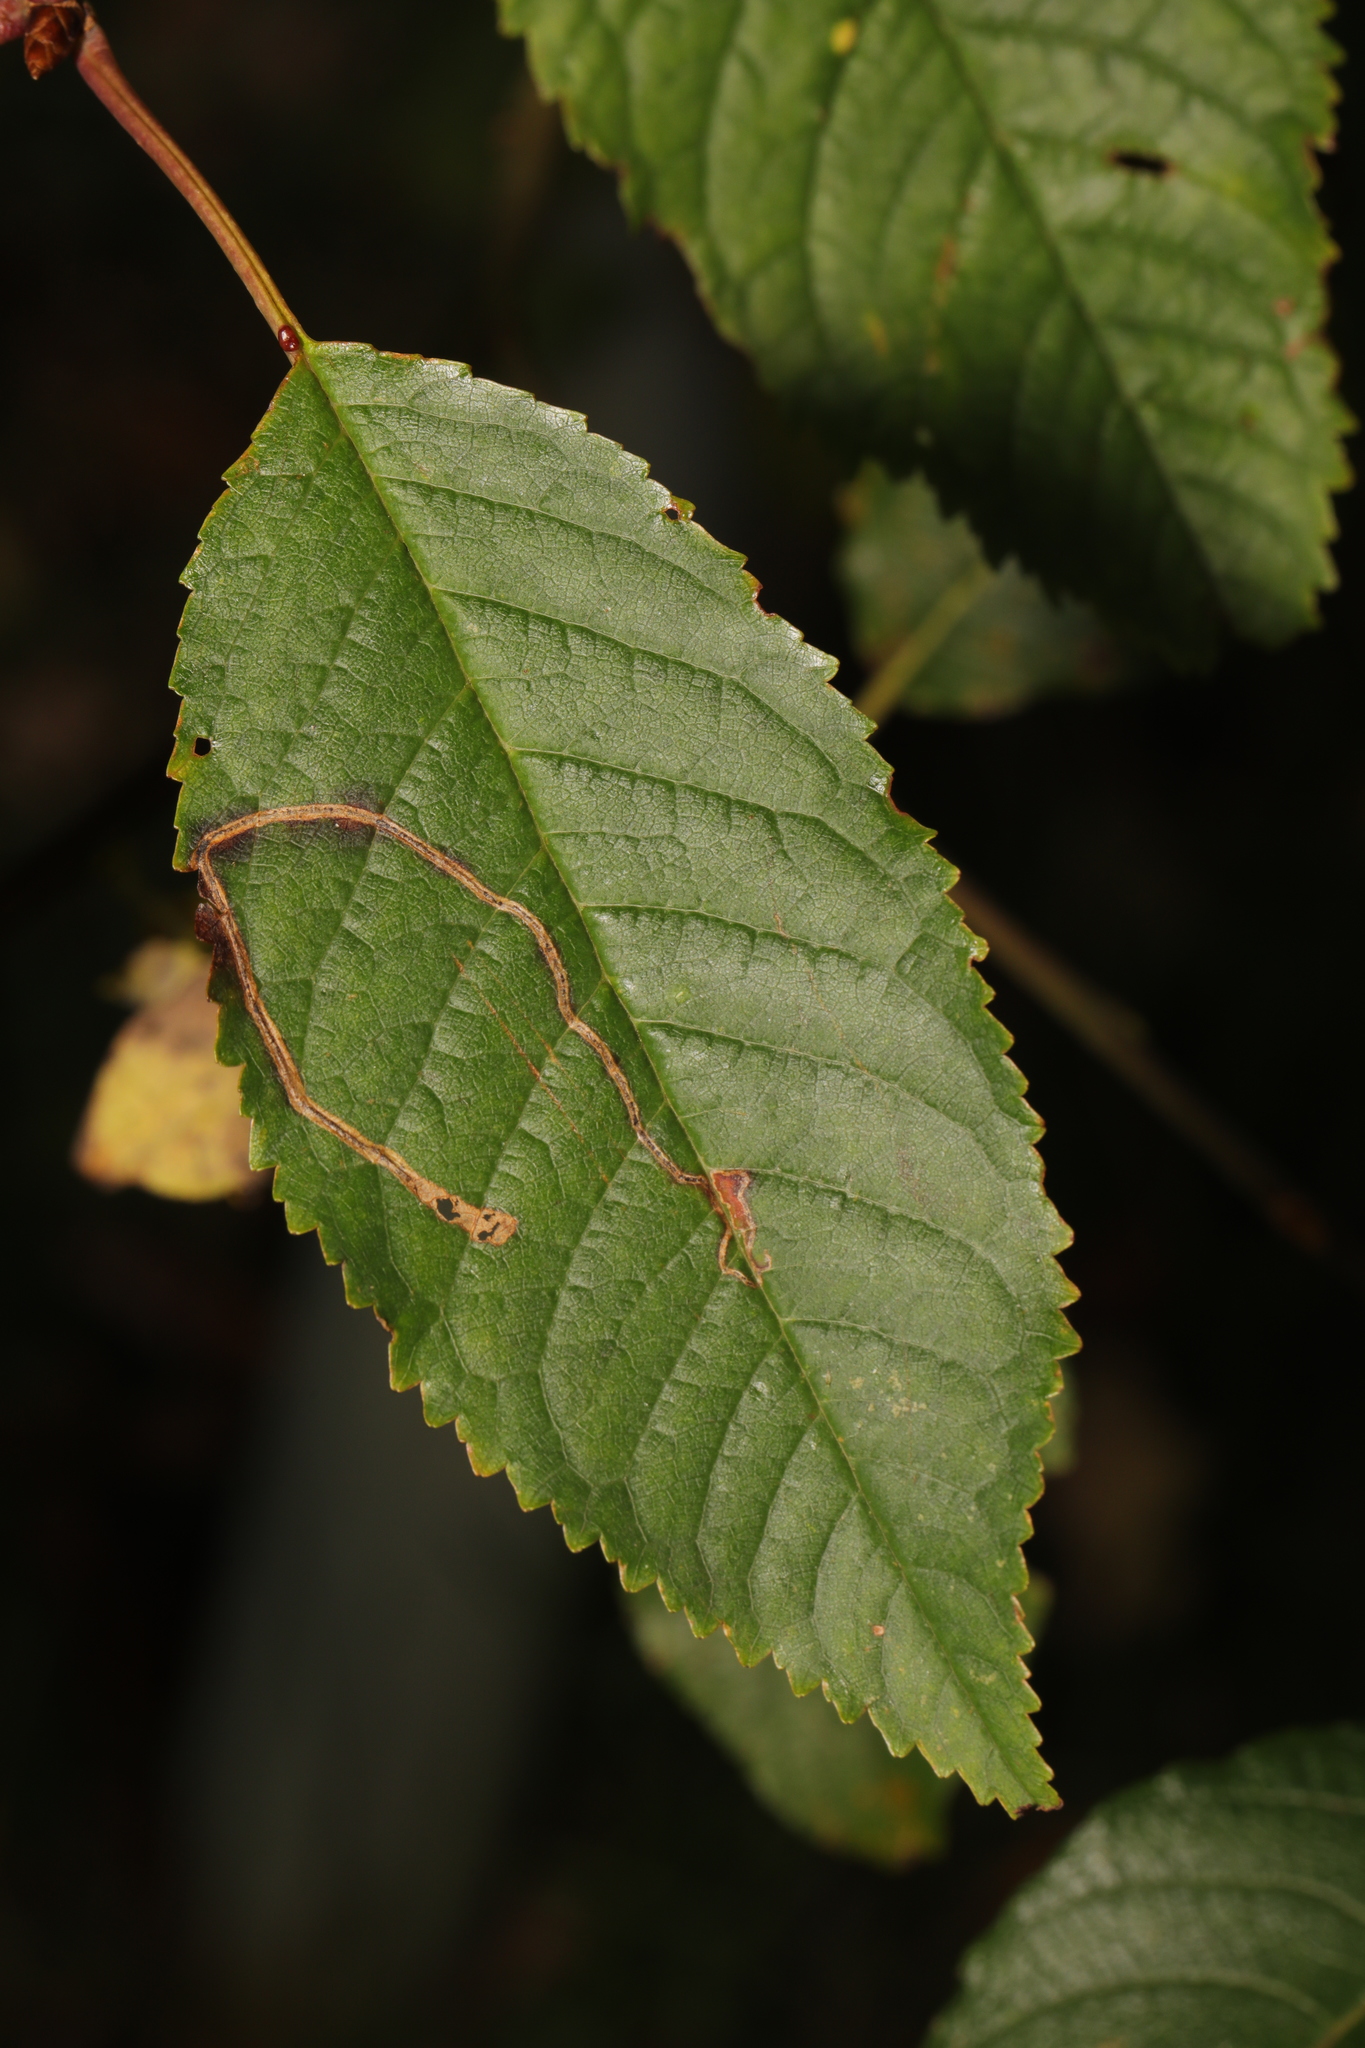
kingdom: Animalia
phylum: Arthropoda
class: Insecta
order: Lepidoptera
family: Lyonetiidae
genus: Lyonetia
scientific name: Lyonetia clerkella
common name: Apple leaf miner
